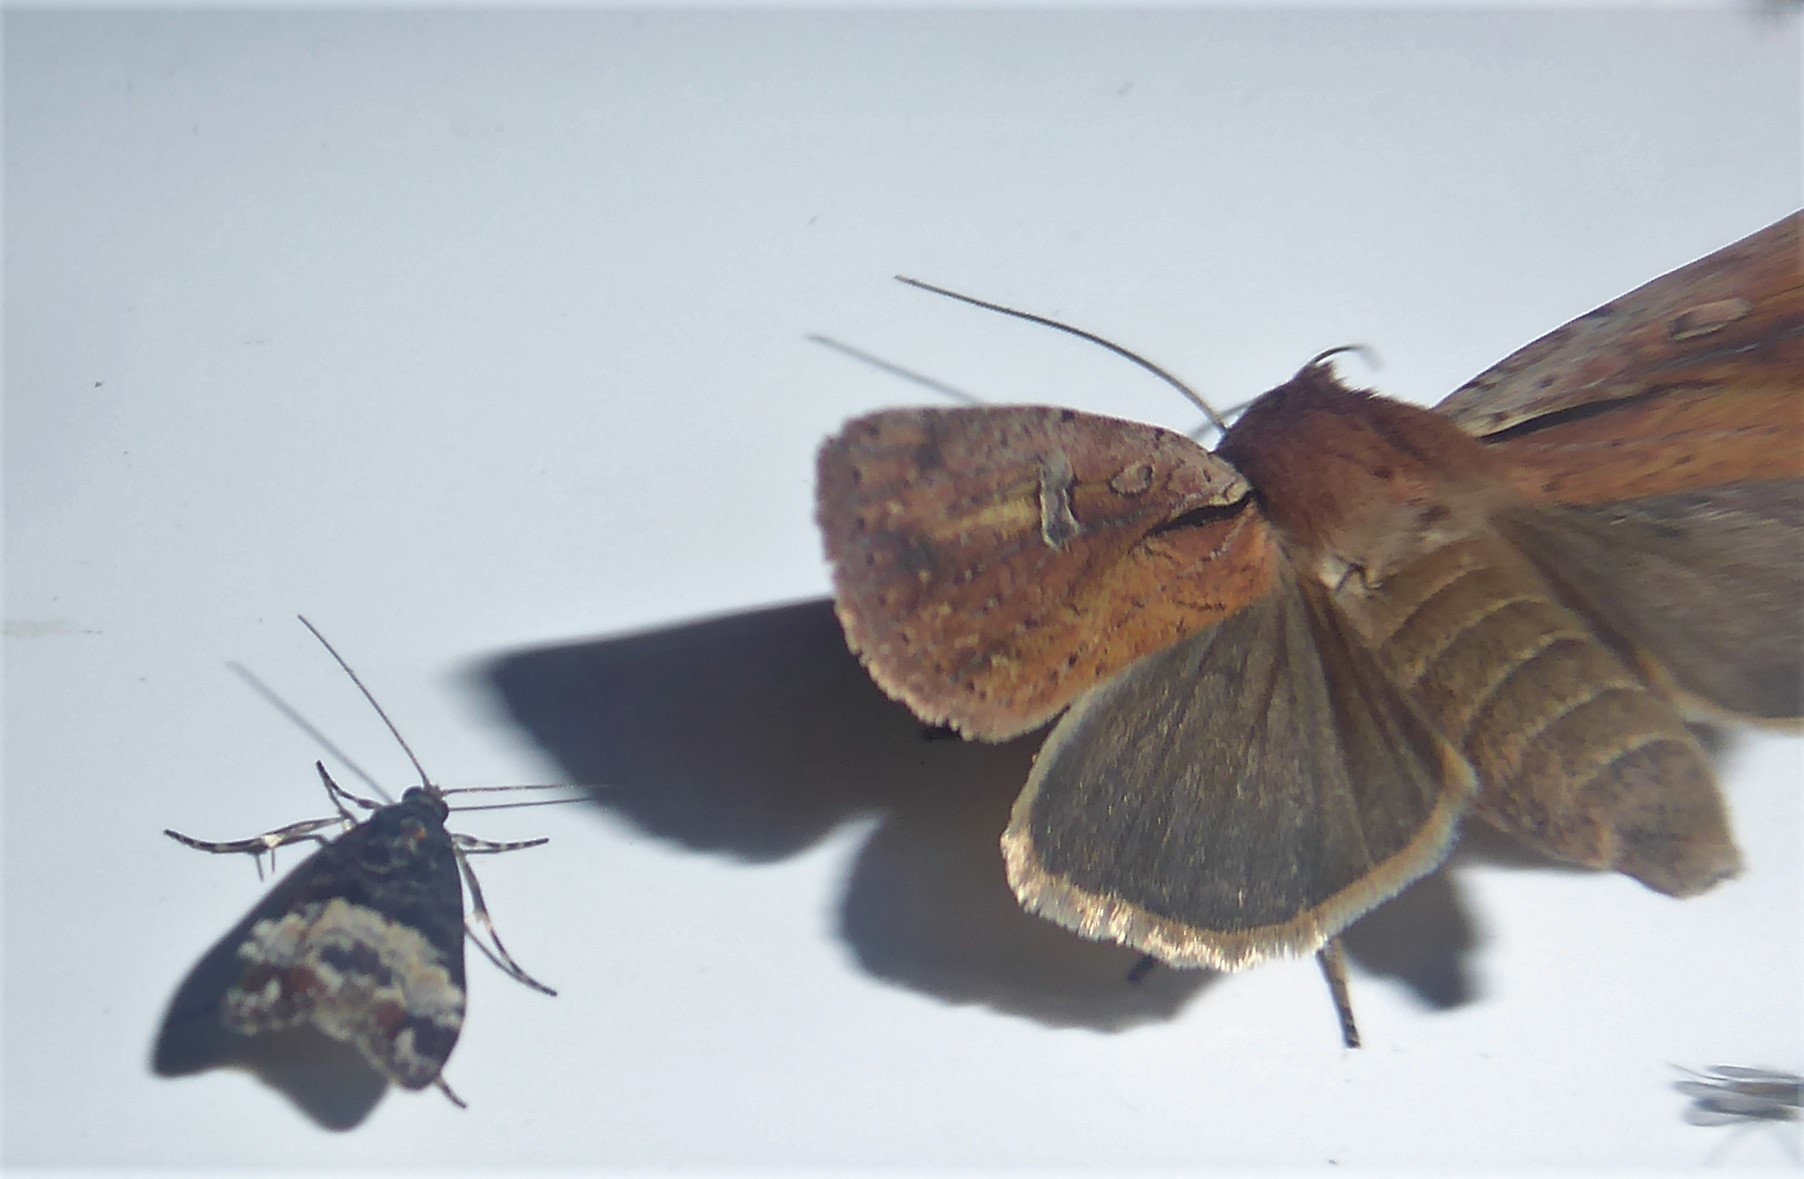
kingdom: Animalia
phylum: Arthropoda
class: Insecta
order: Lepidoptera
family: Crambidae
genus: Scoparia
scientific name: Scoparia minusculalis
